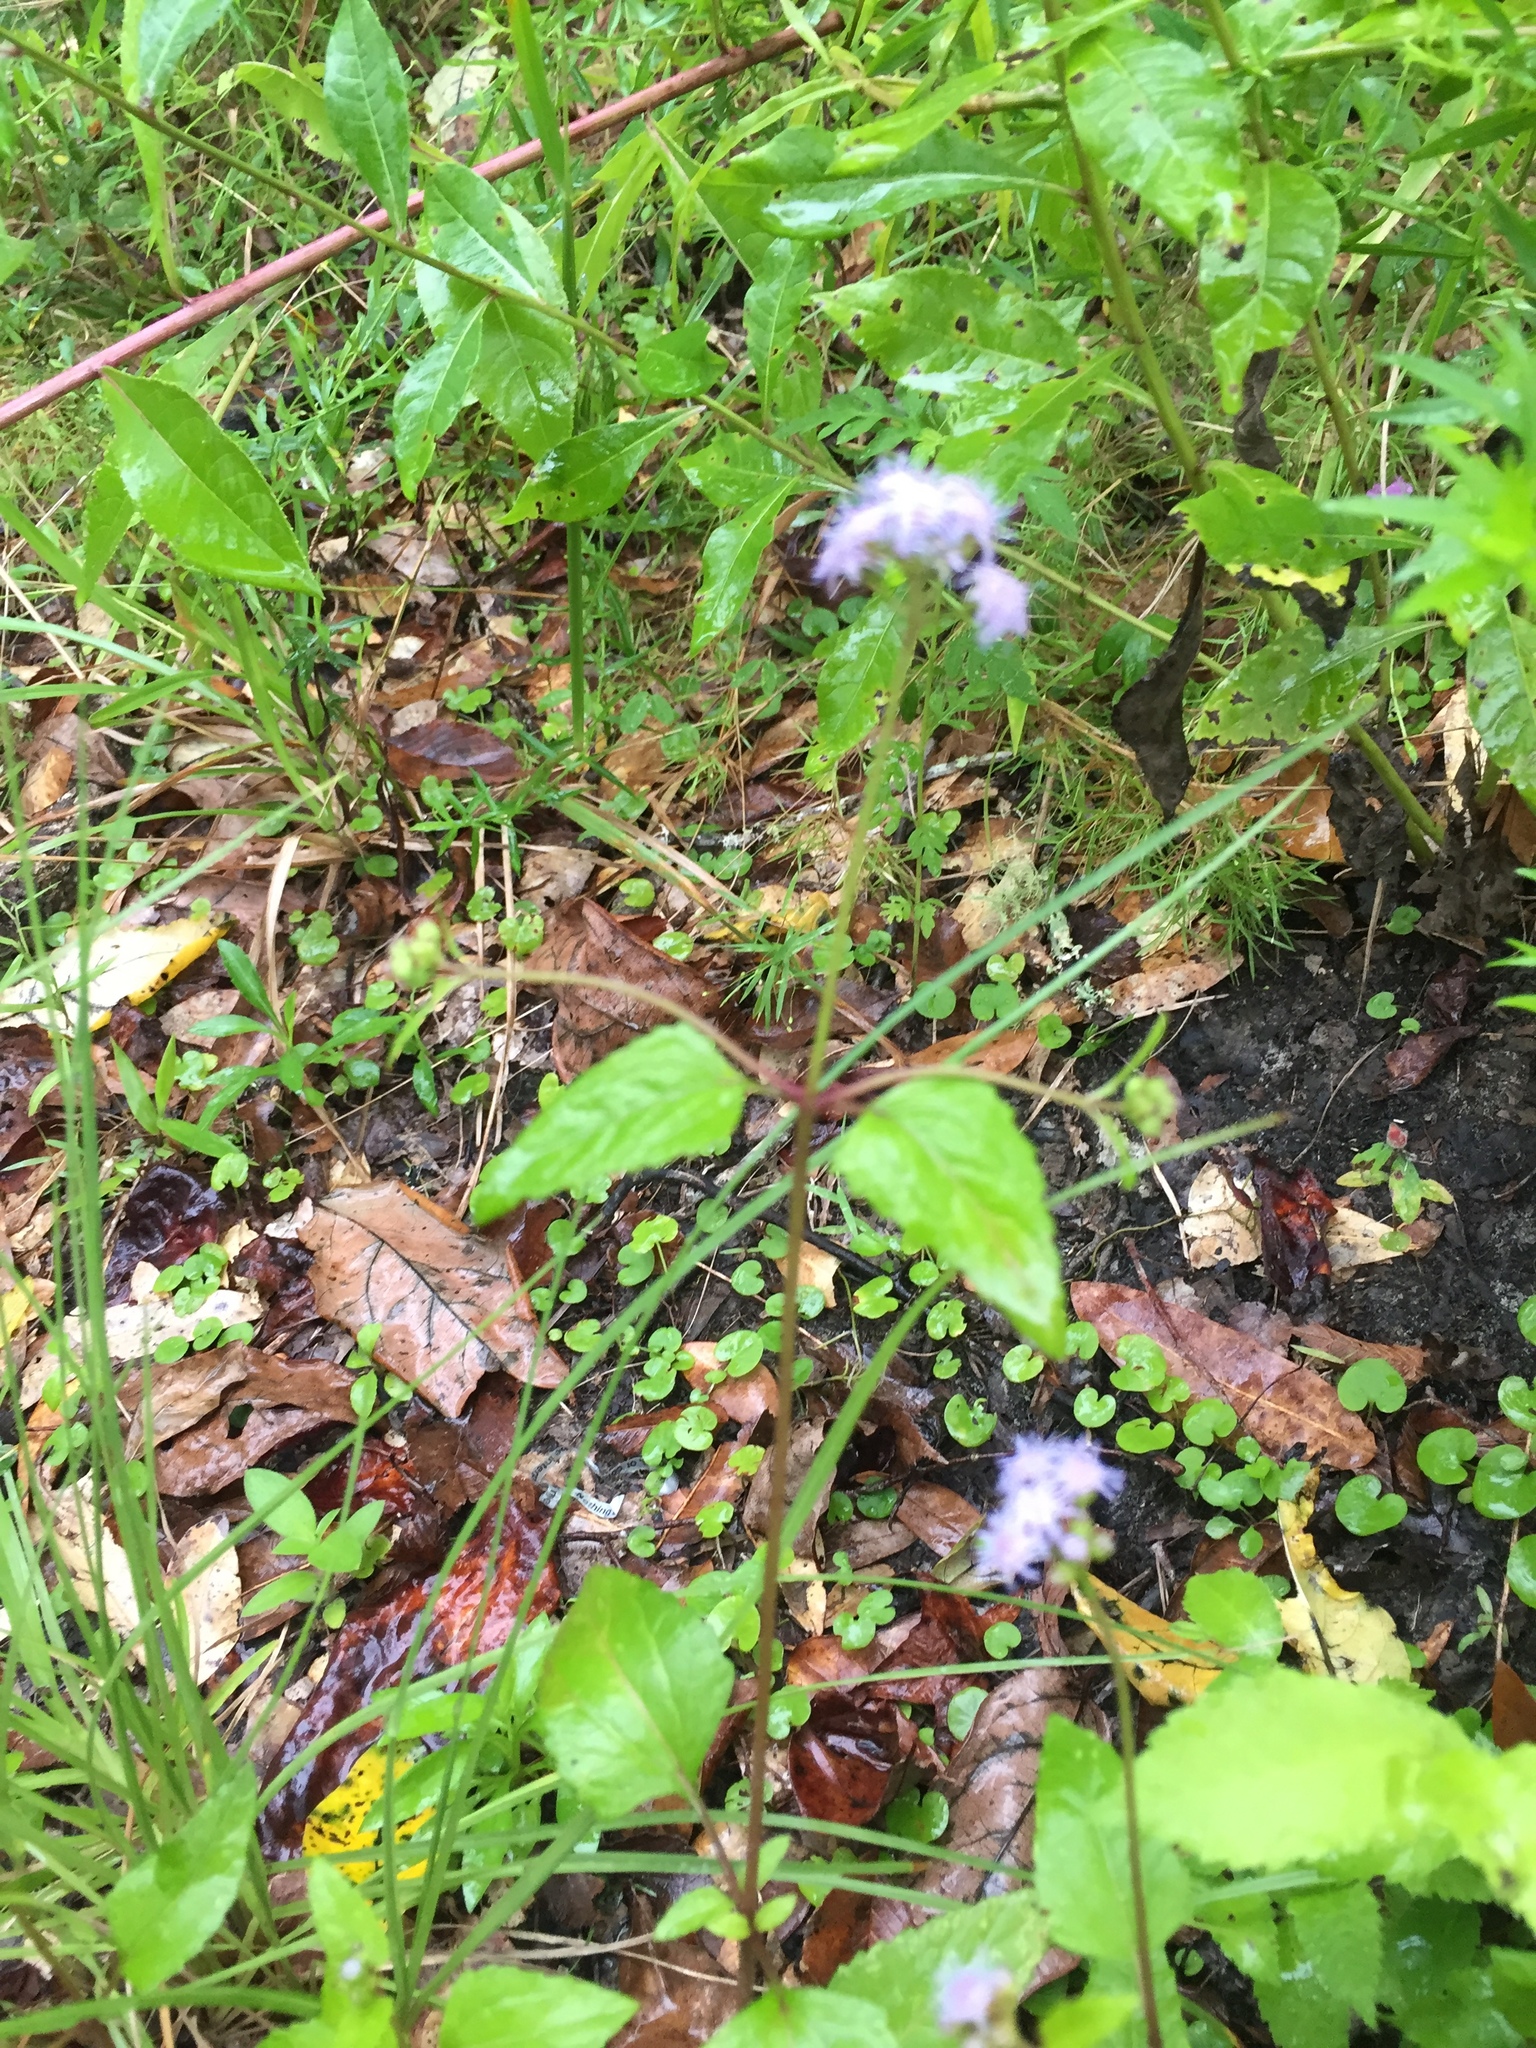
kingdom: Plantae
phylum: Tracheophyta
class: Magnoliopsida
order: Asterales
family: Asteraceae
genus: Conoclinium
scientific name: Conoclinium coelestinum
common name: Blue mistflower
